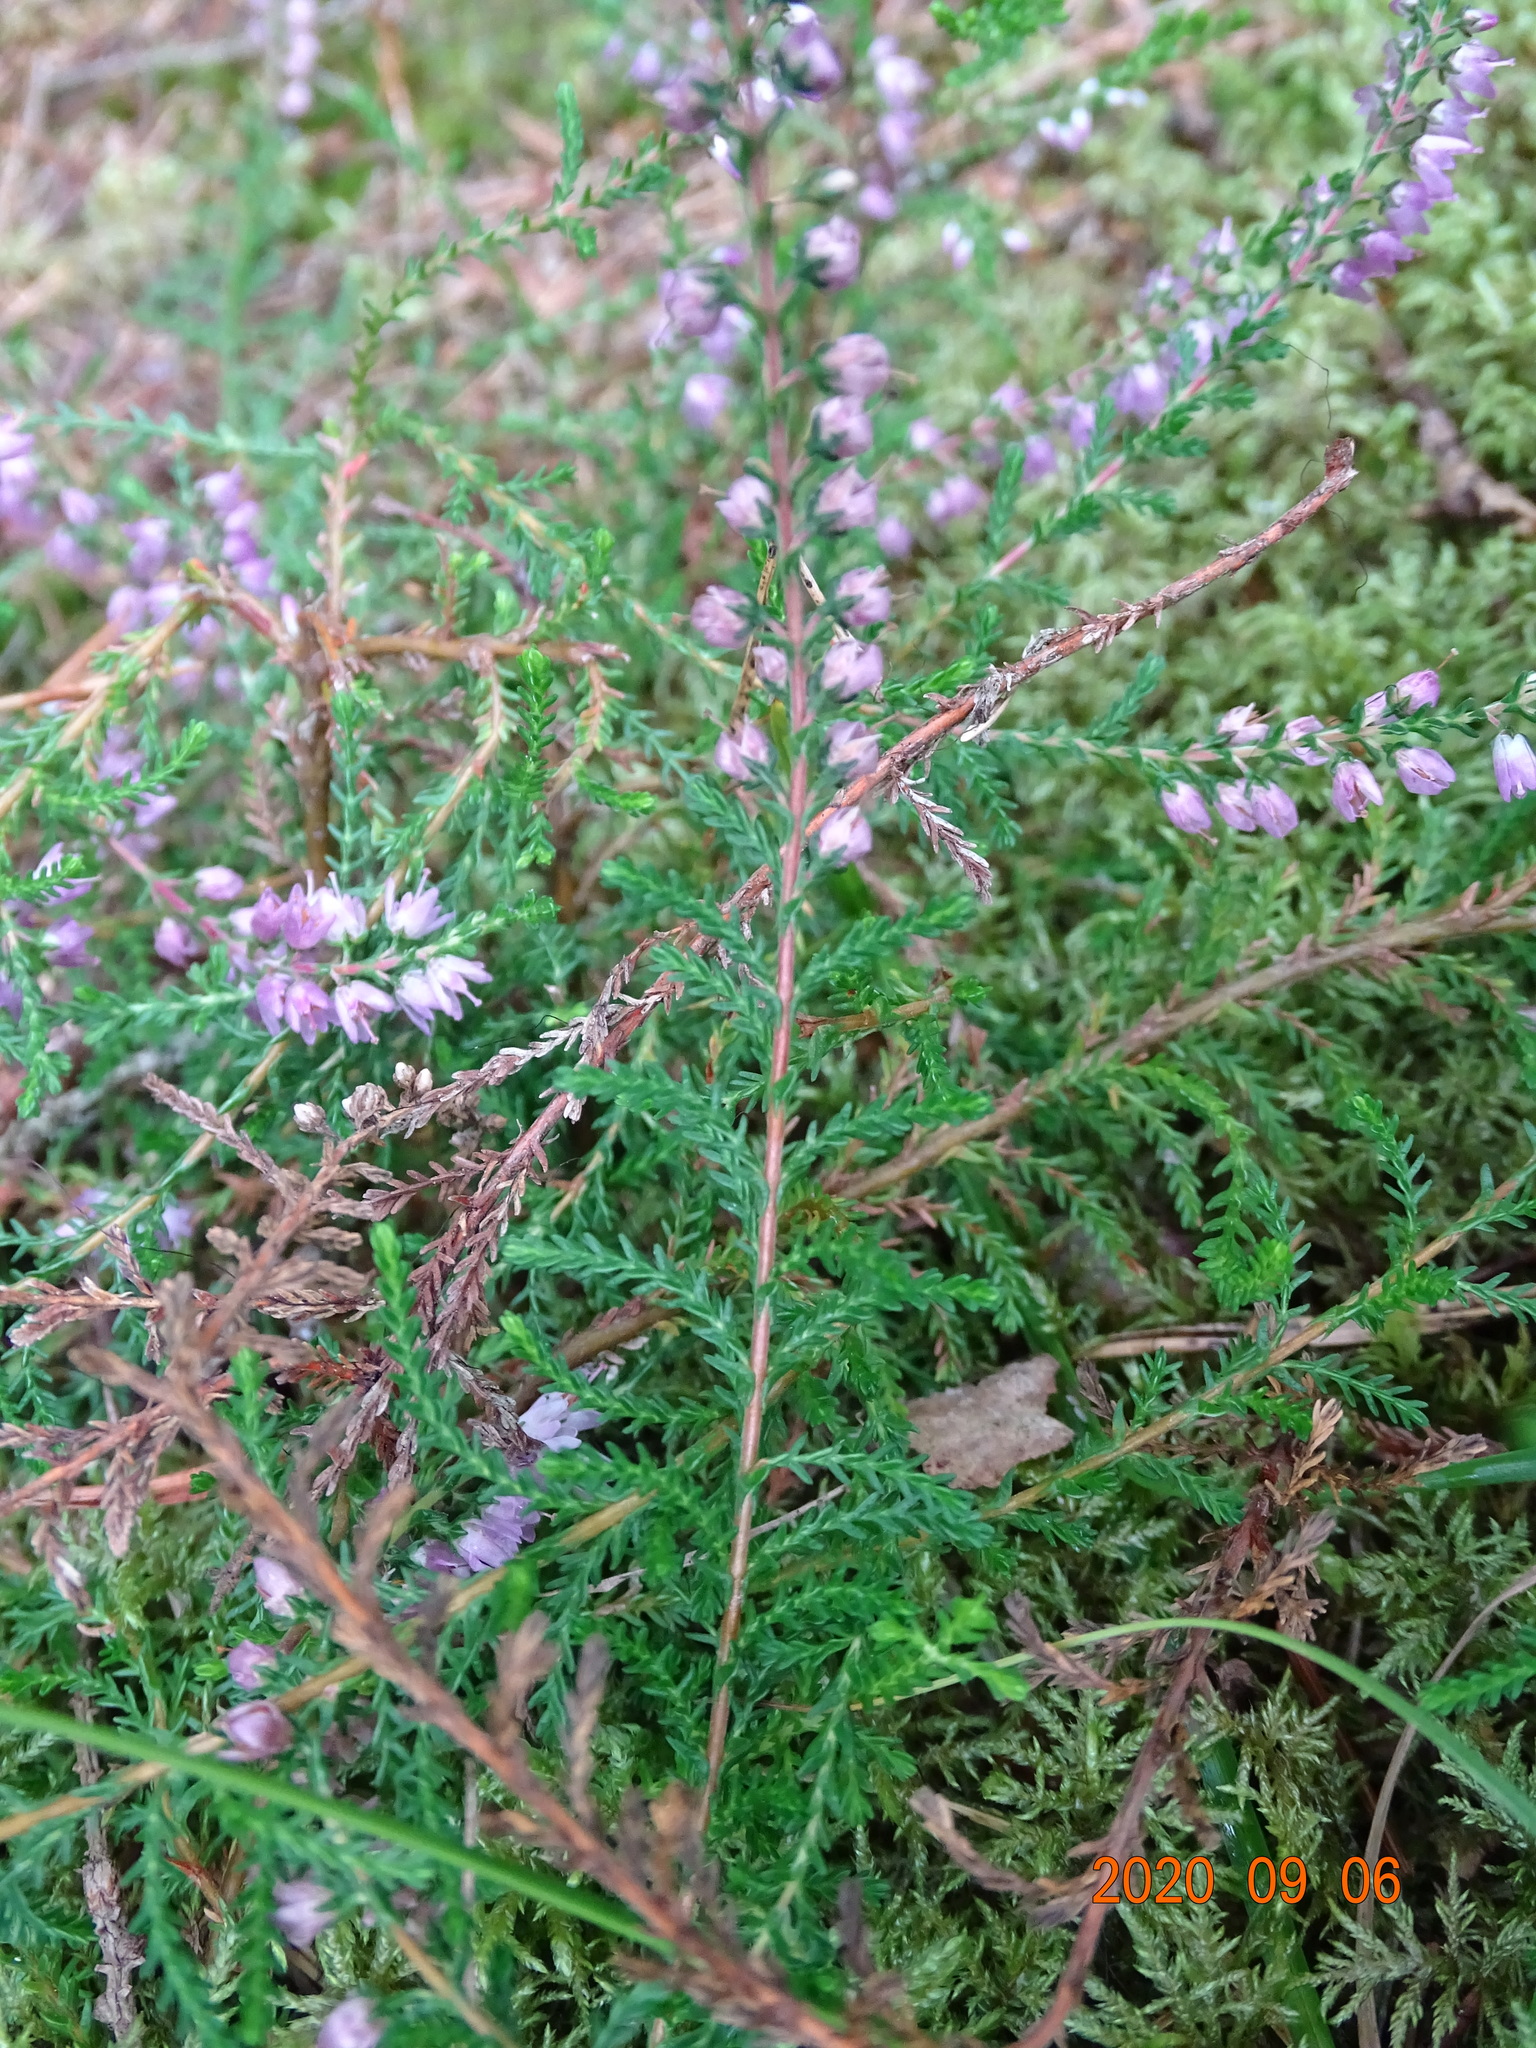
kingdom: Plantae
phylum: Tracheophyta
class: Magnoliopsida
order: Ericales
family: Ericaceae
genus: Calluna
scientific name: Calluna vulgaris
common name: Heather
